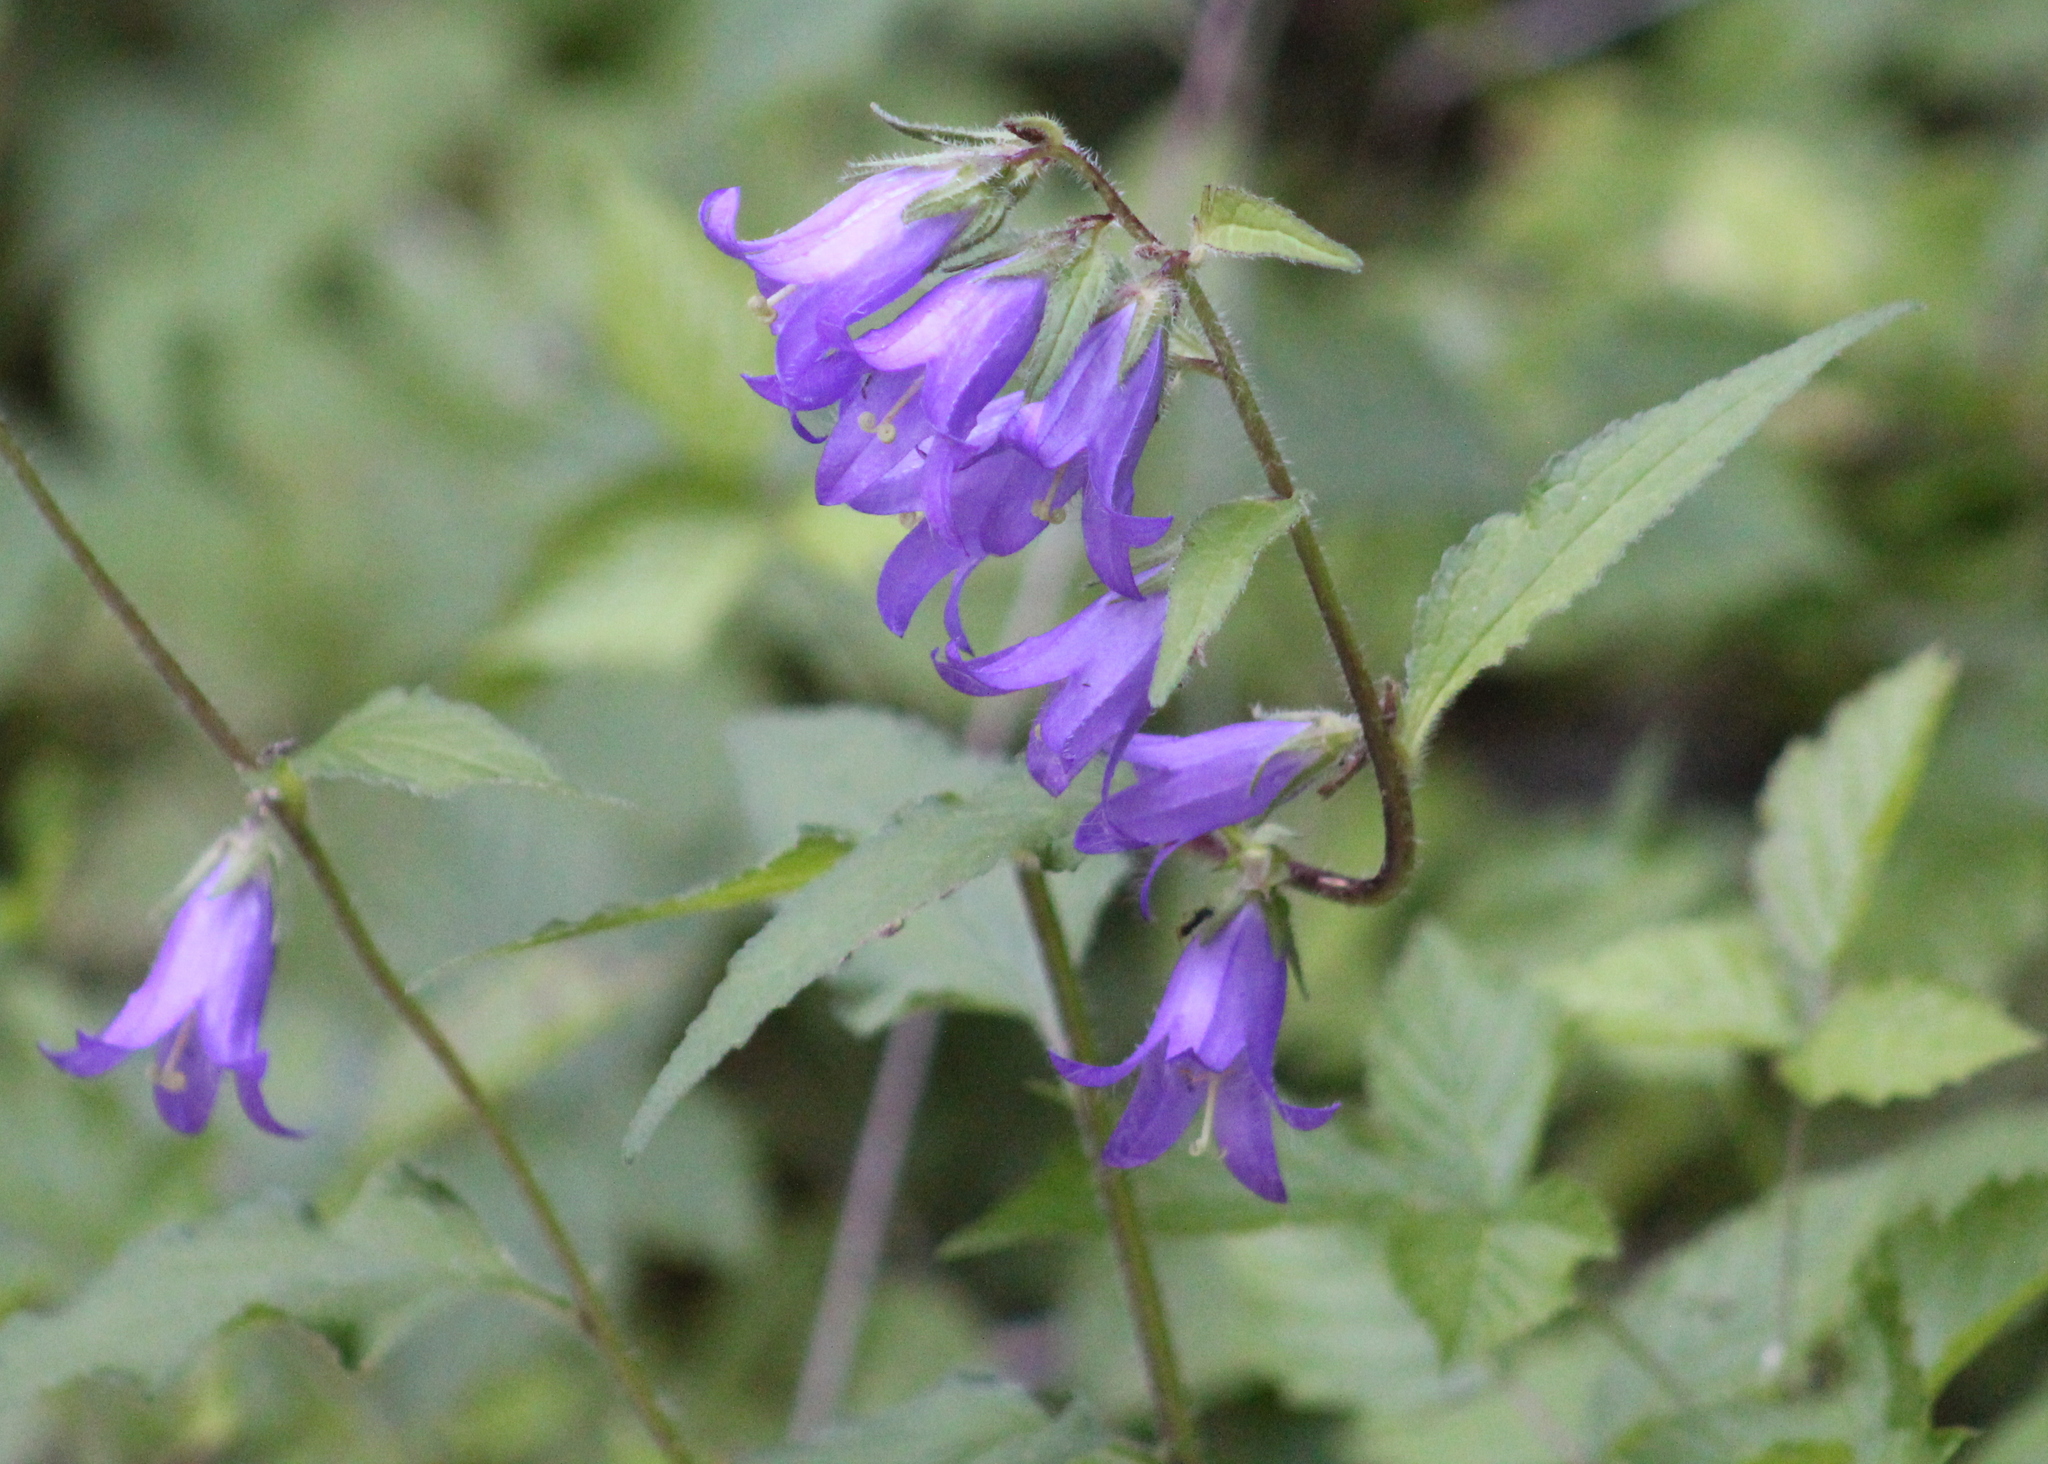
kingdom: Plantae
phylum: Tracheophyta
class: Magnoliopsida
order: Asterales
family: Campanulaceae
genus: Campanula
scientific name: Campanula trachelium
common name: Nettle-leaved bellflower
